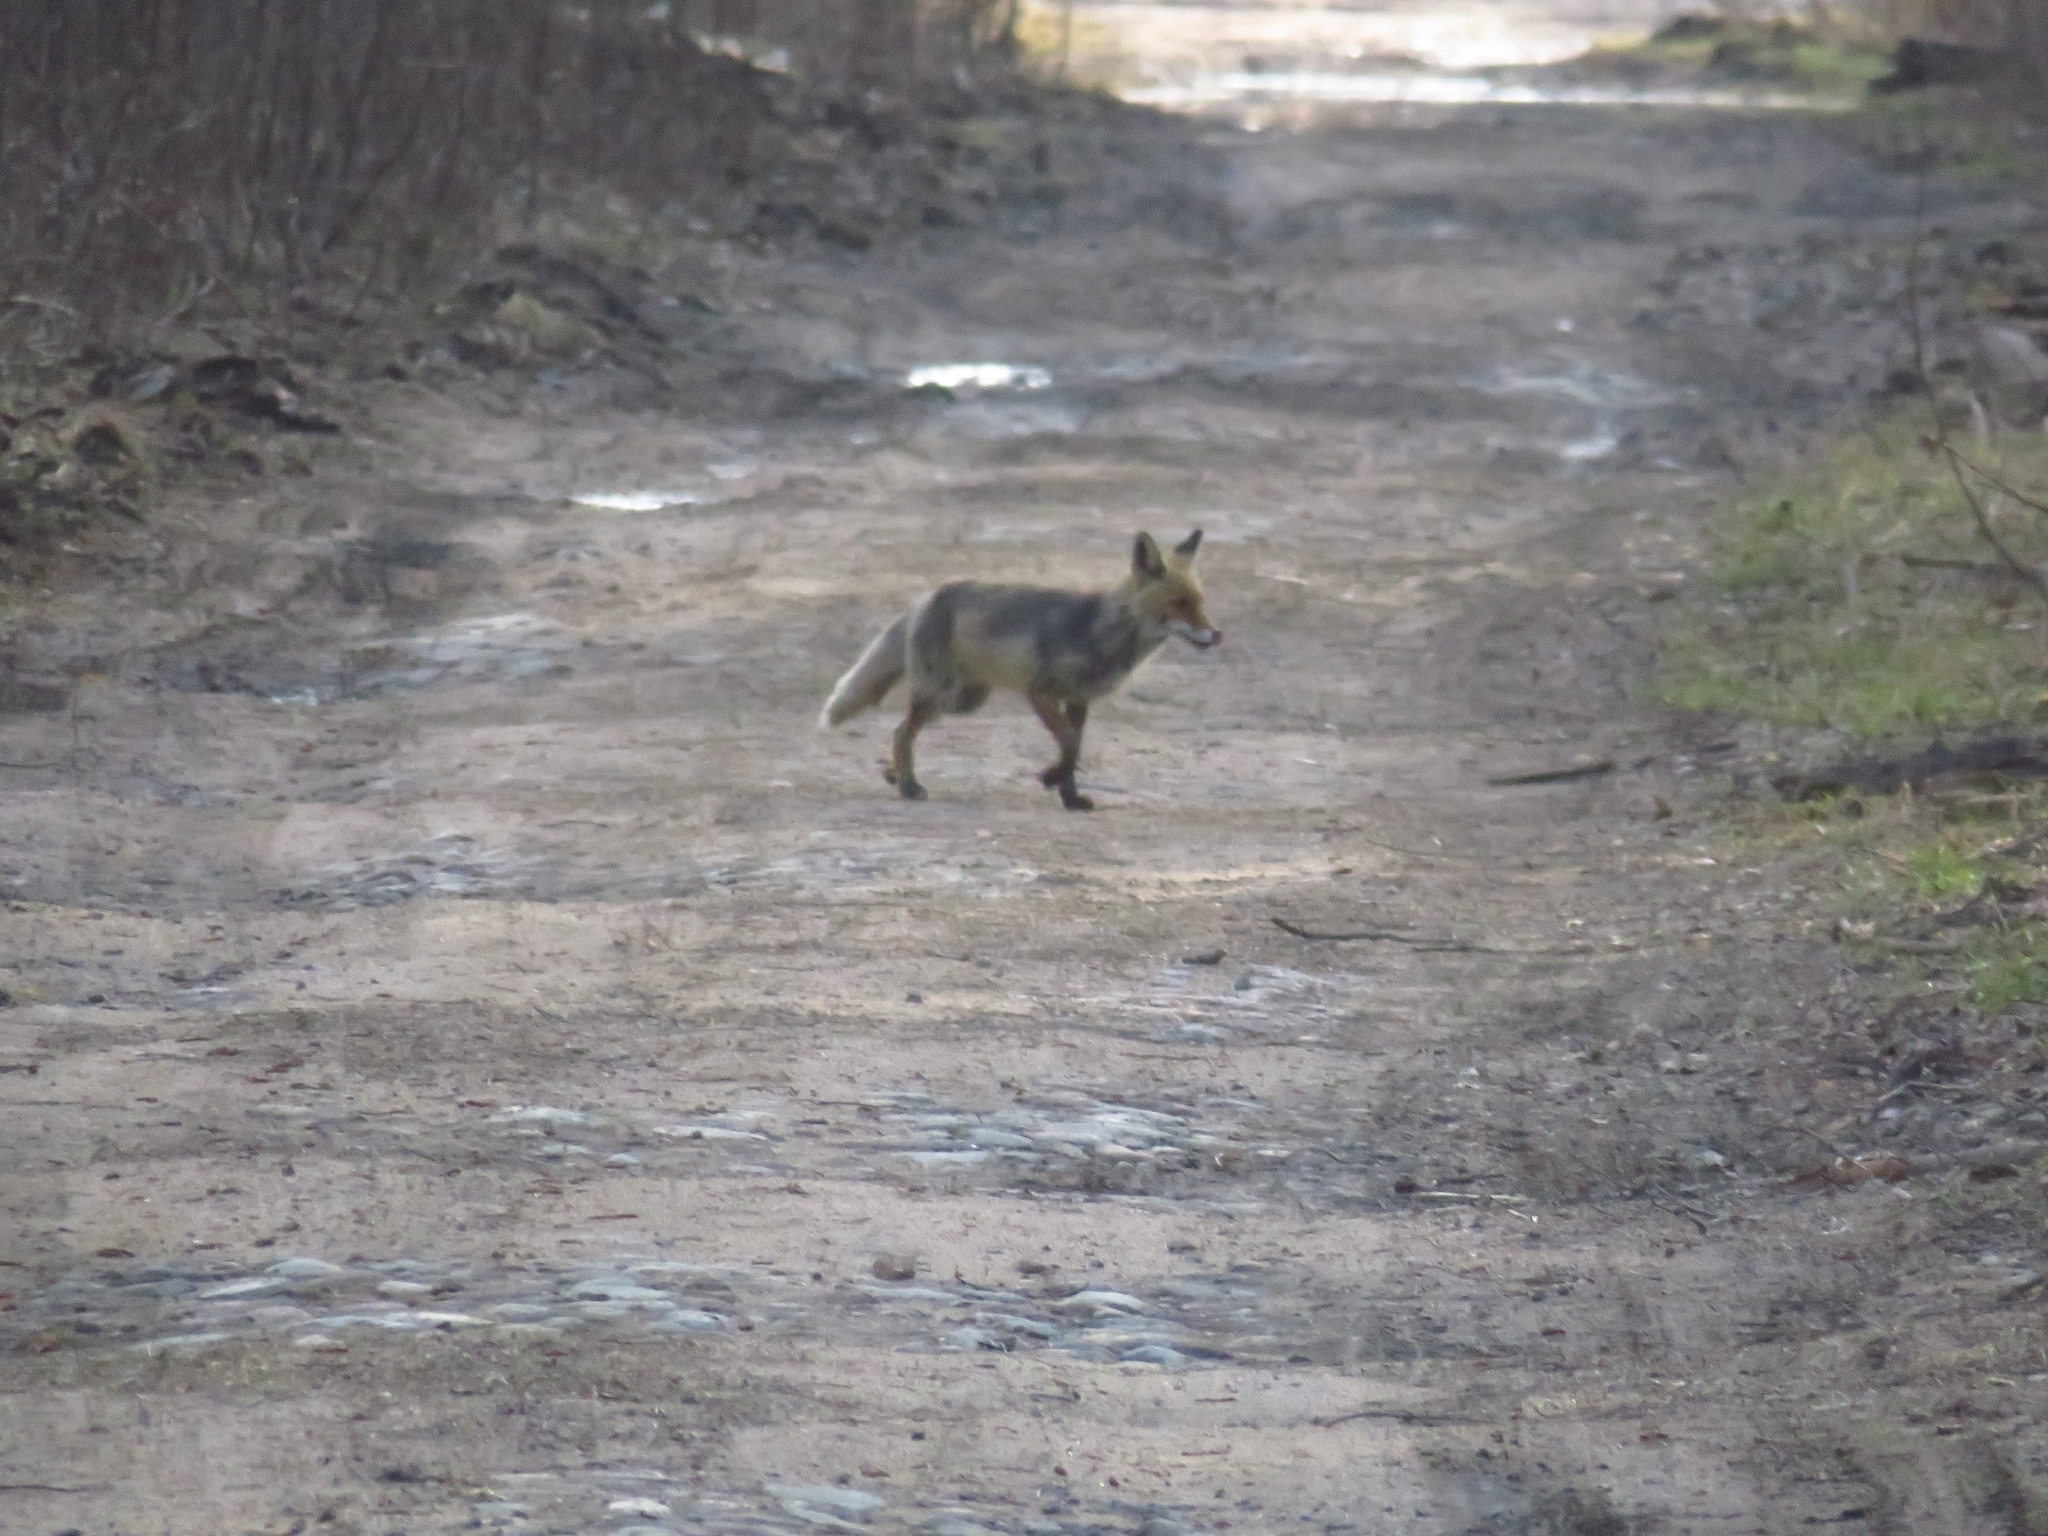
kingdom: Animalia
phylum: Chordata
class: Mammalia
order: Carnivora
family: Canidae
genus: Vulpes
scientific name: Vulpes vulpes
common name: Red fox
